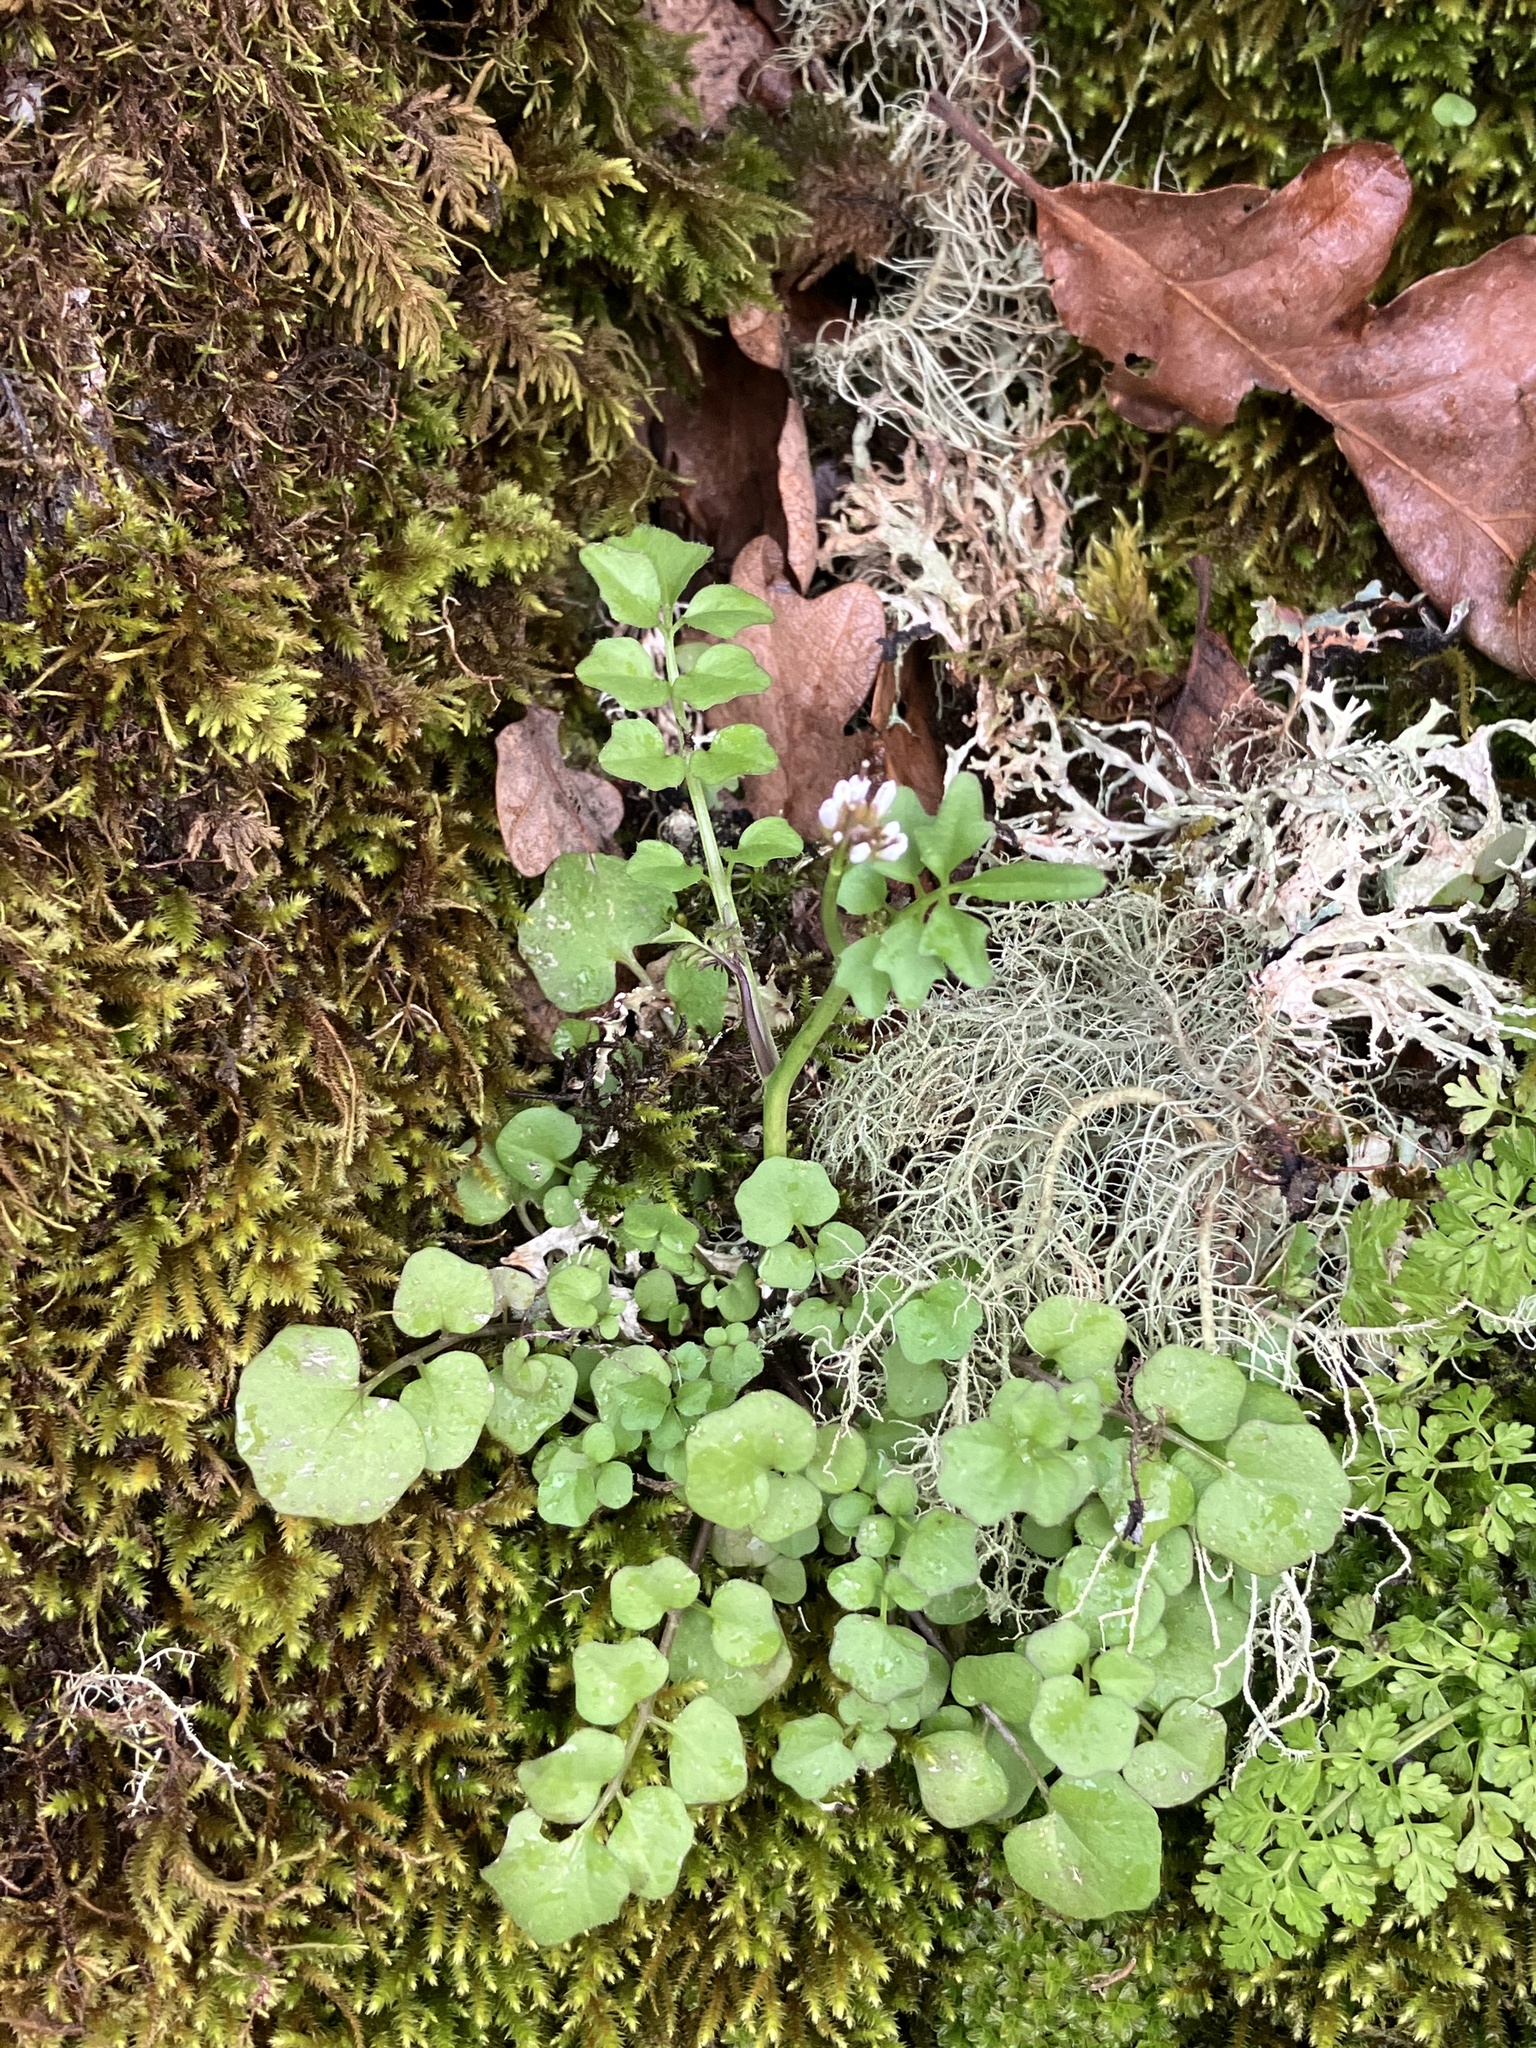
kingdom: Plantae
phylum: Tracheophyta
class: Magnoliopsida
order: Brassicales
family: Brassicaceae
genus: Cardamine
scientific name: Cardamine hirsuta
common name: Hairy bittercress
